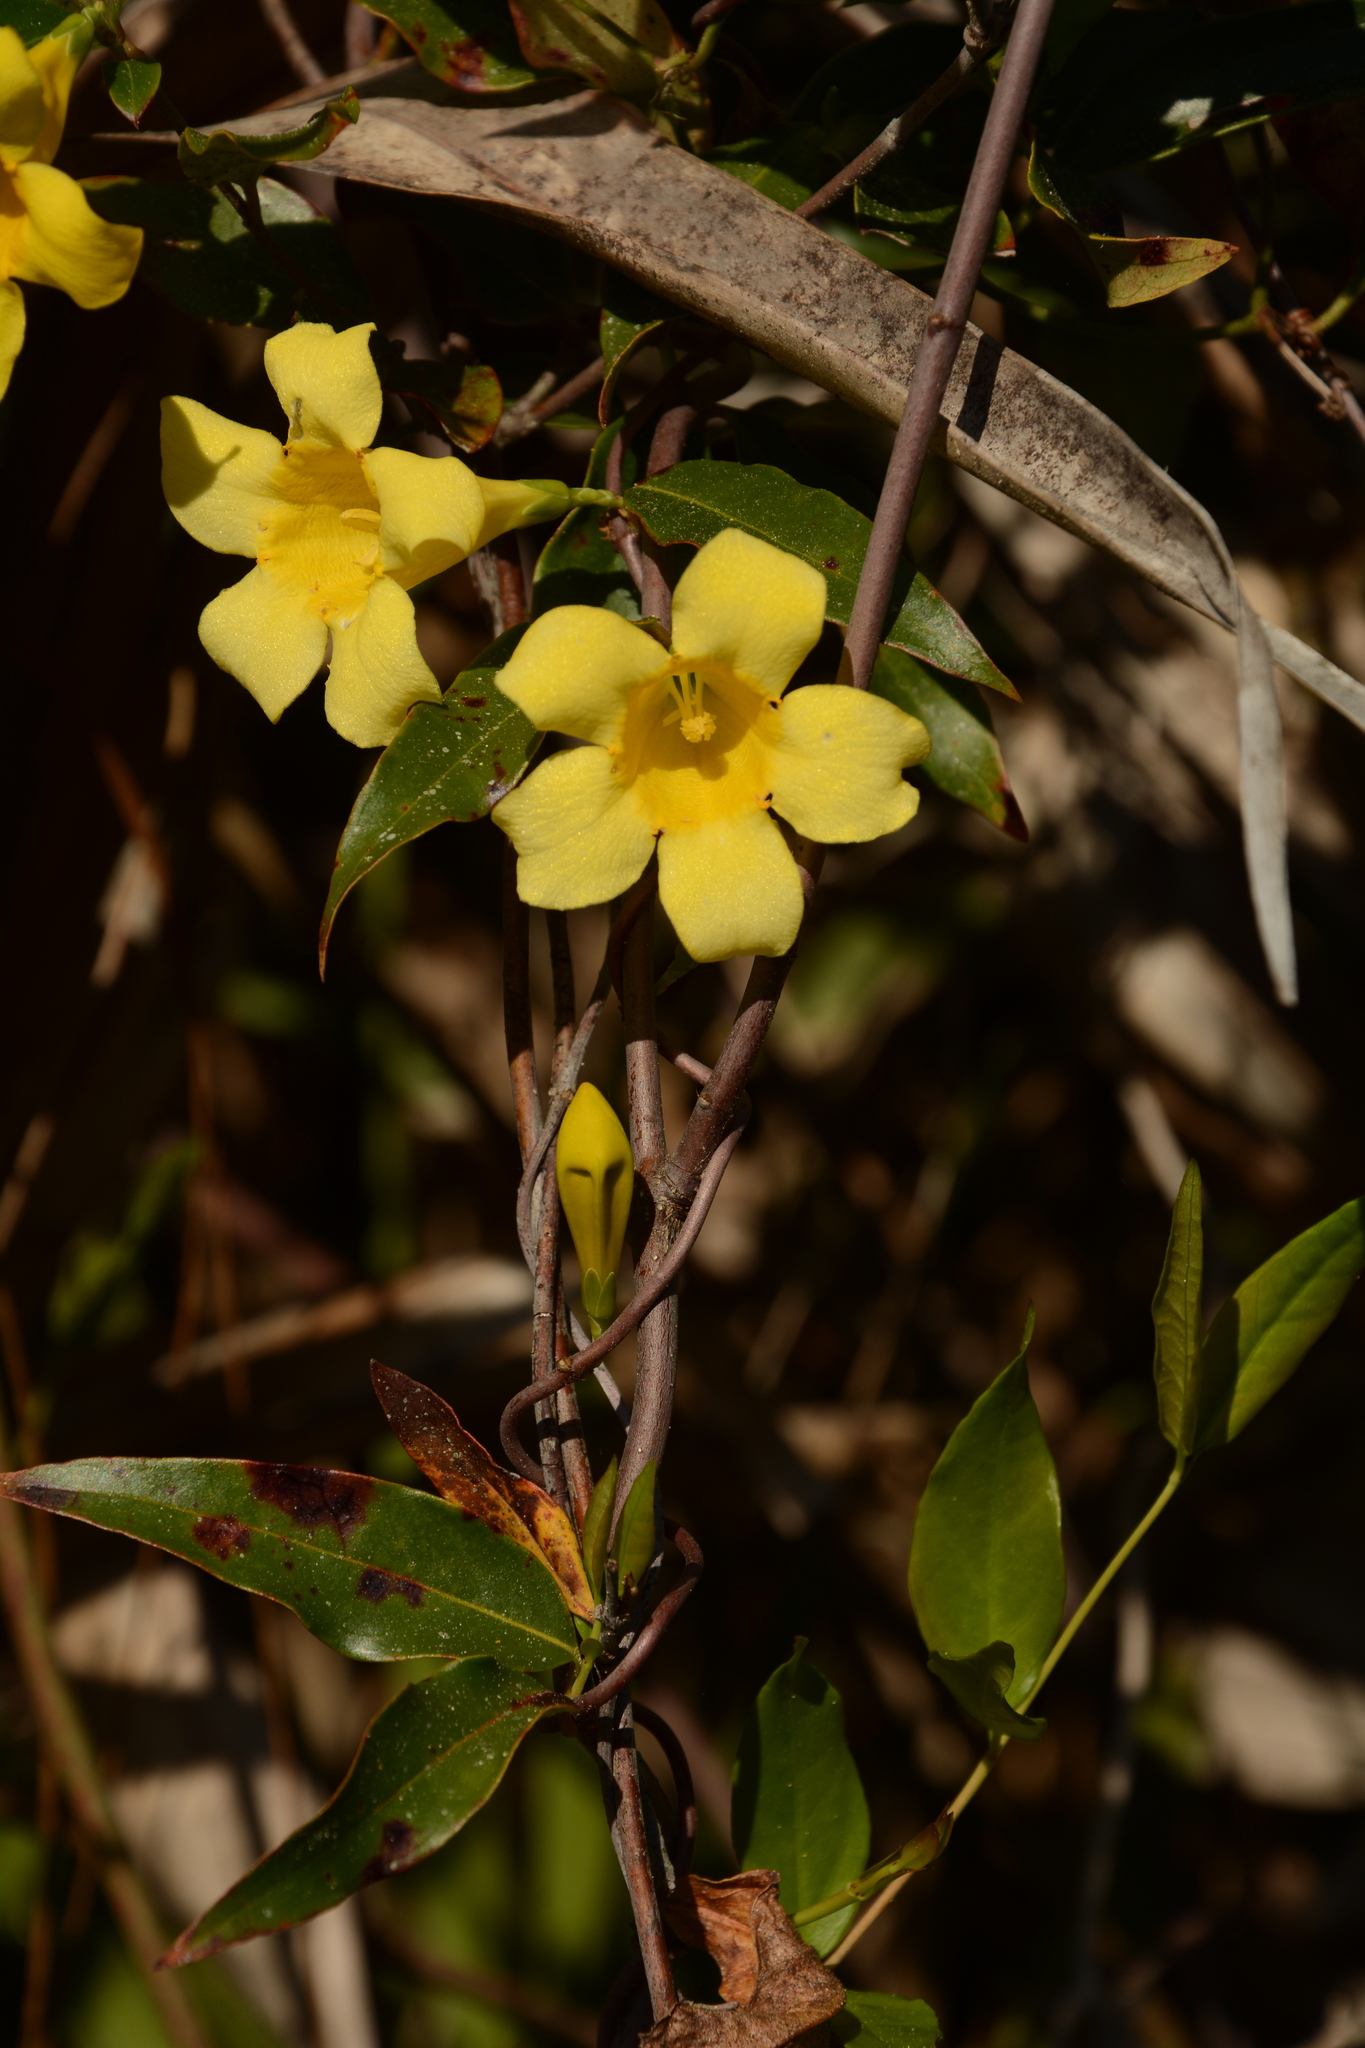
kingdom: Plantae
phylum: Tracheophyta
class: Magnoliopsida
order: Gentianales
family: Gelsemiaceae
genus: Gelsemium
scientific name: Gelsemium sempervirens
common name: Carolina-jasmine
